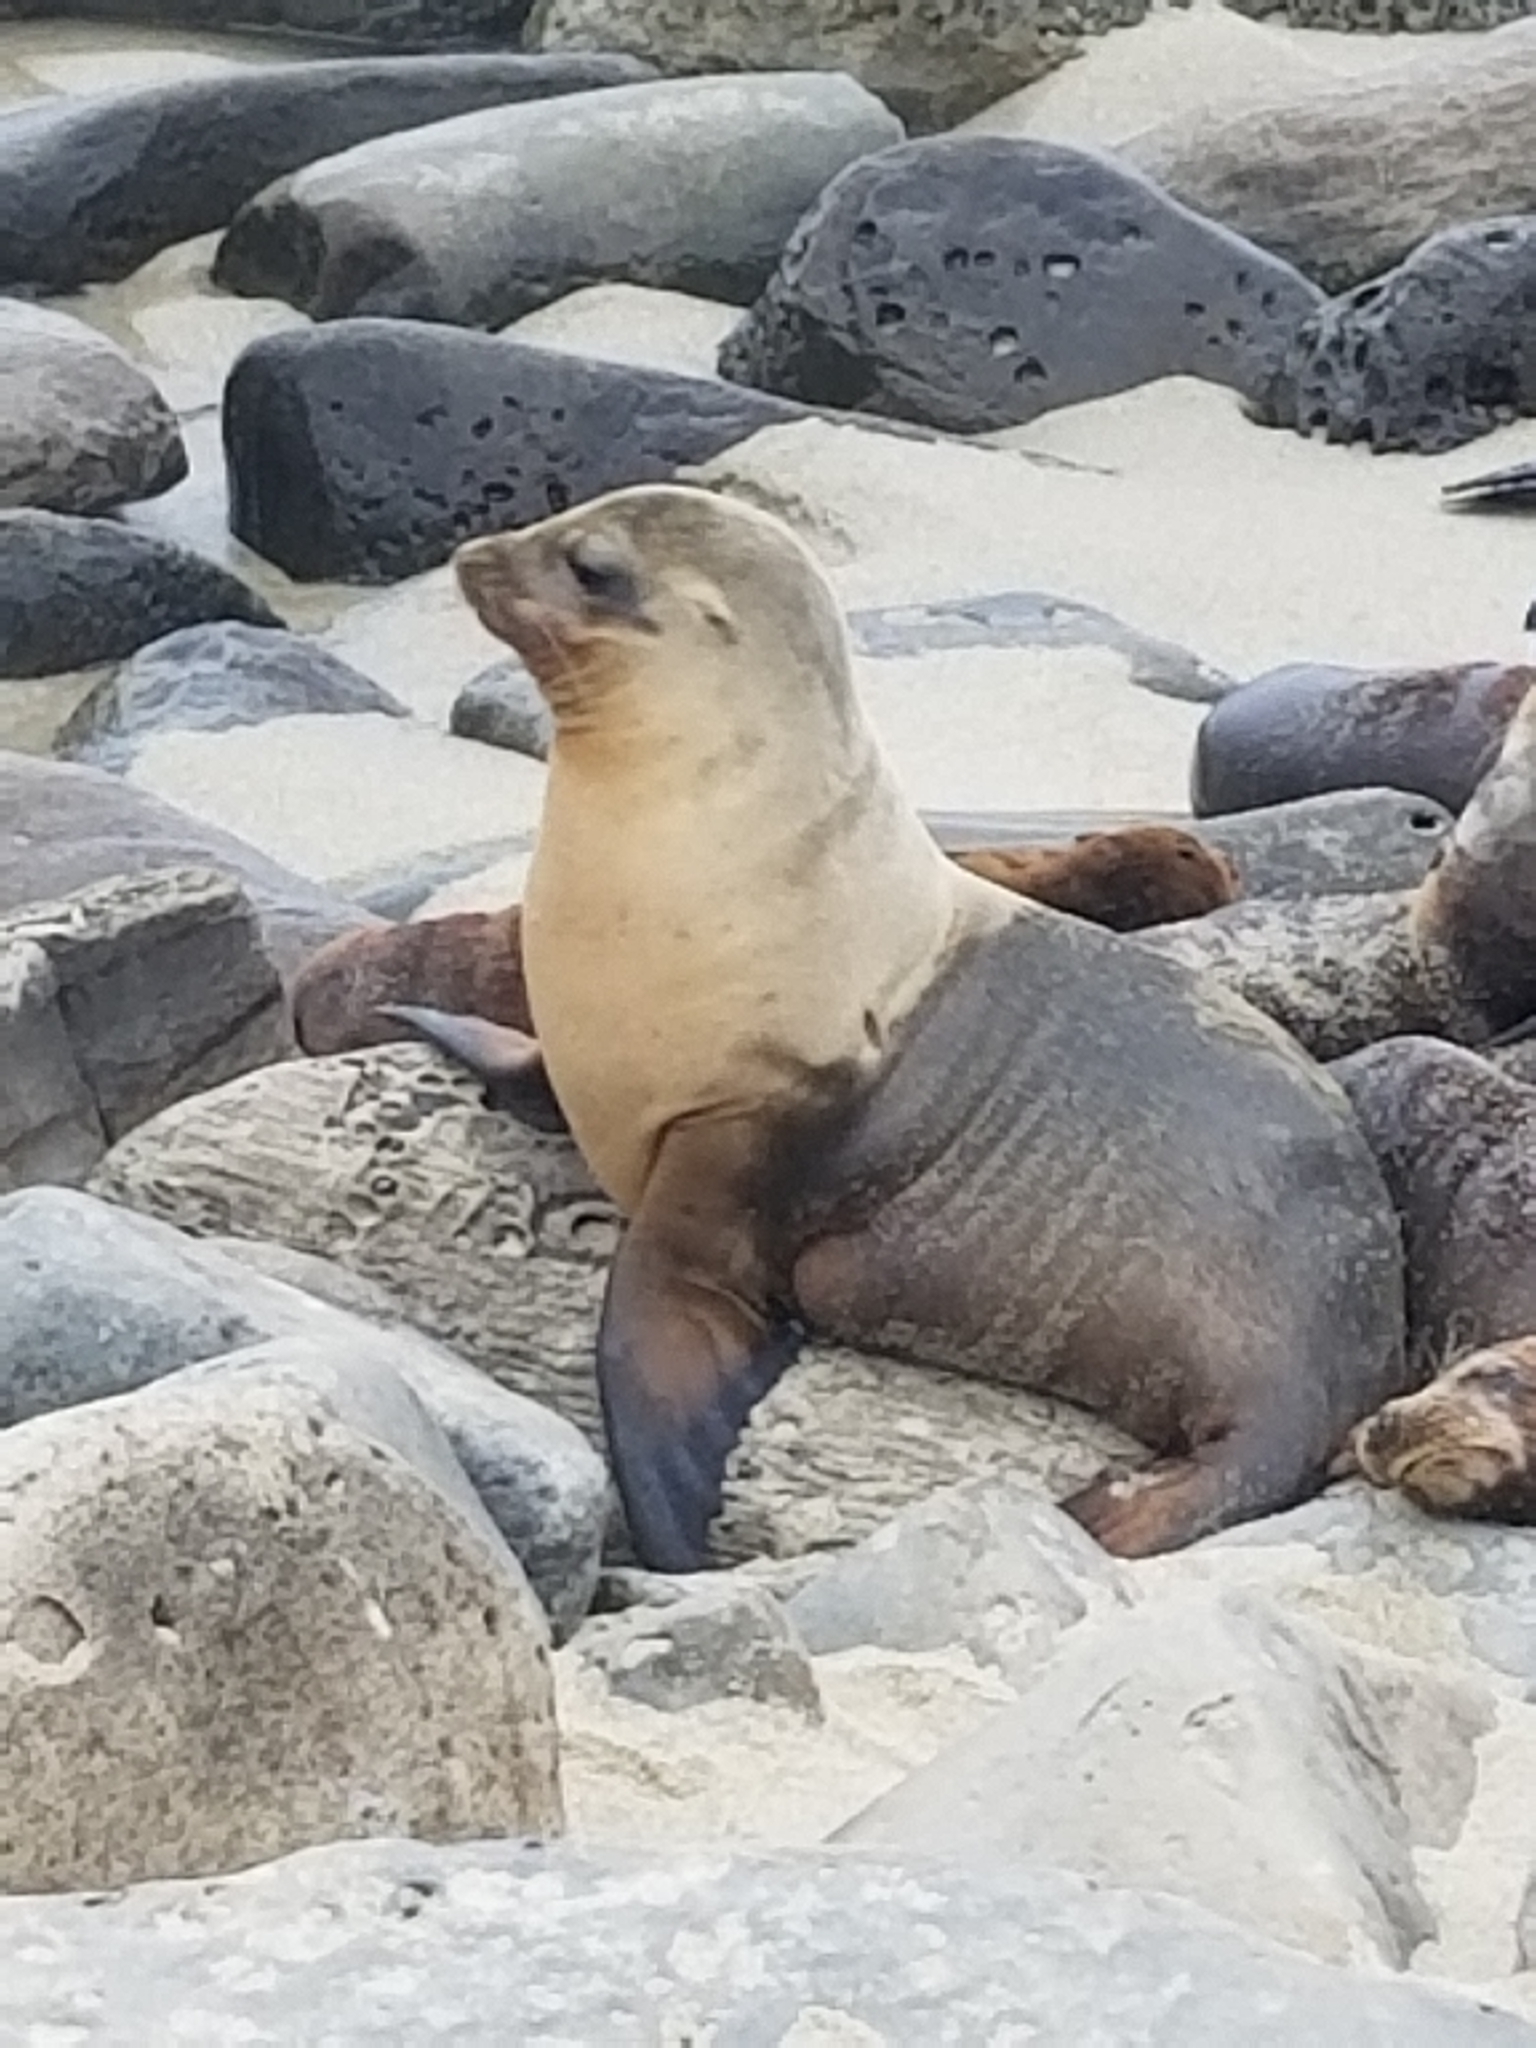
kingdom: Animalia
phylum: Chordata
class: Mammalia
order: Carnivora
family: Otariidae
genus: Zalophus
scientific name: Zalophus californianus
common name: California sea lion
